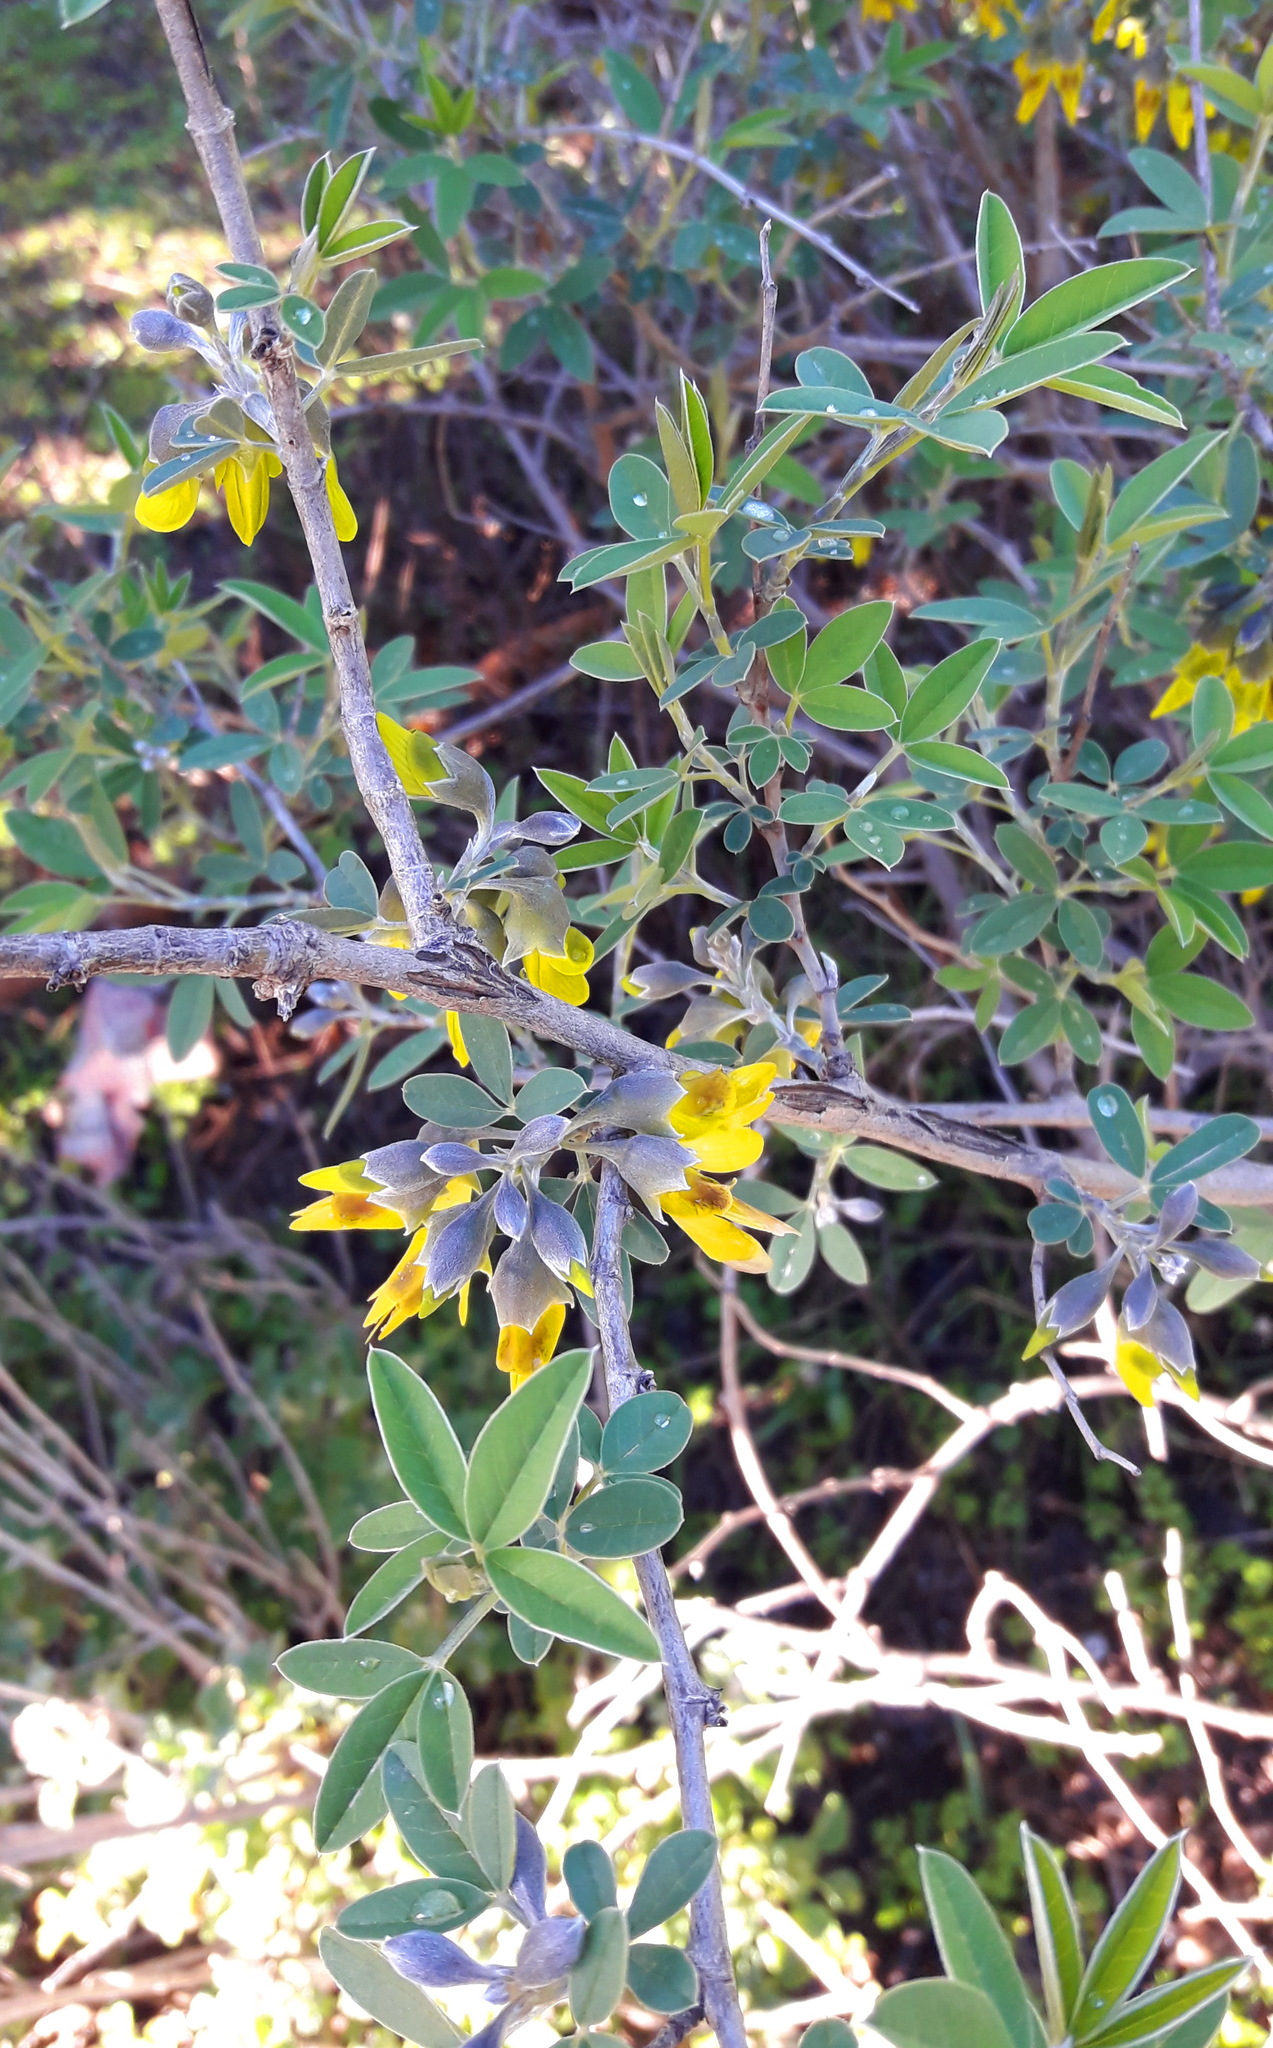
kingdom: Plantae
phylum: Tracheophyta
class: Magnoliopsida
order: Fabales
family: Fabaceae
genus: Anagyris
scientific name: Anagyris foetida
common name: Stinking bean trefoil
